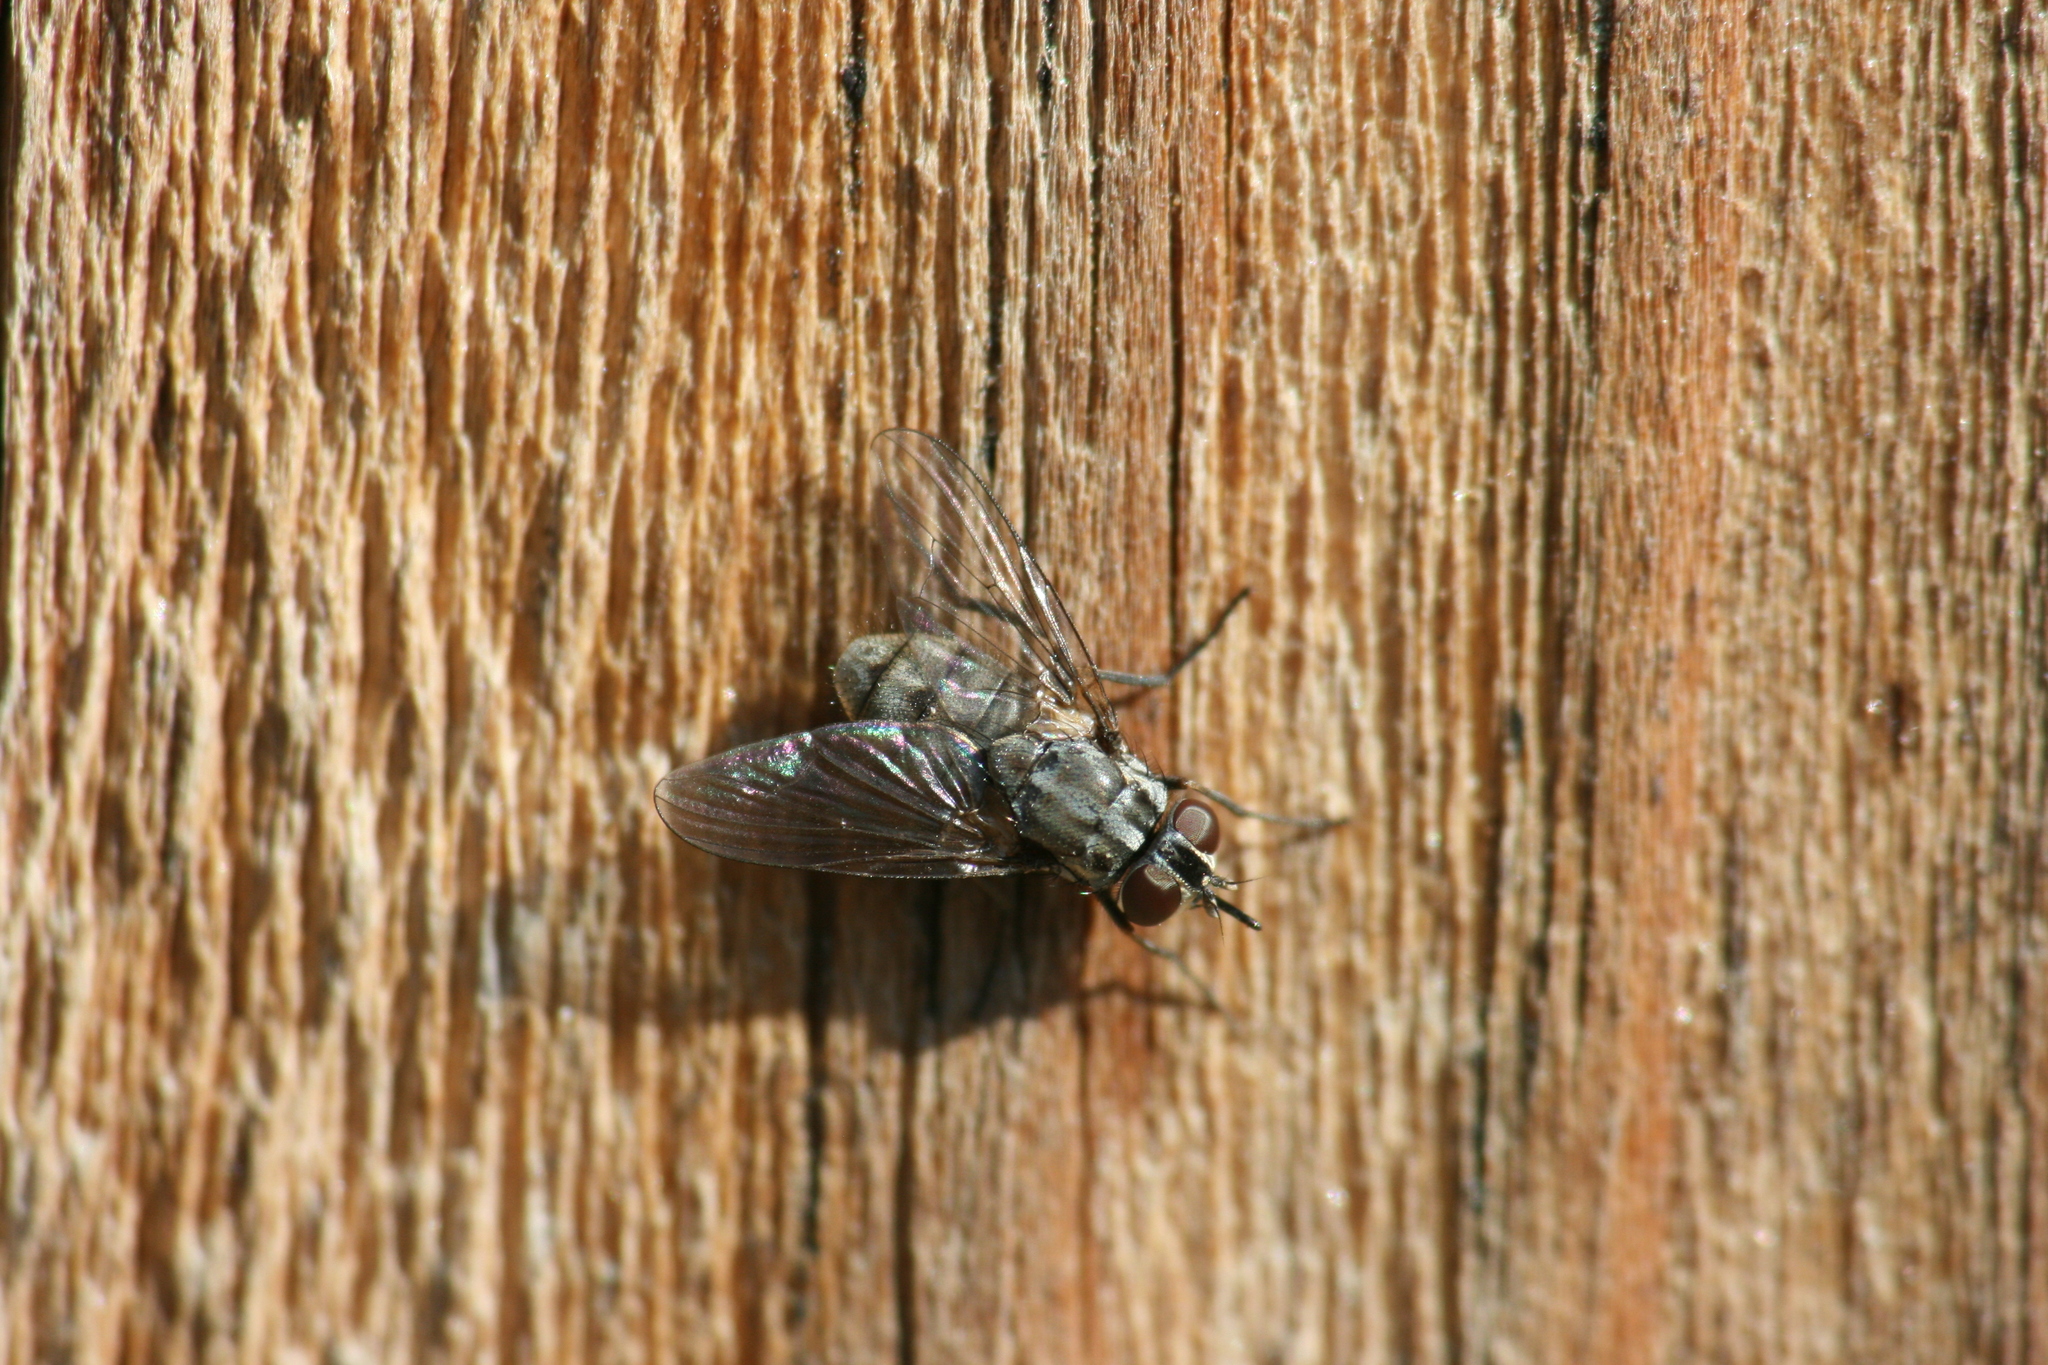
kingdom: Animalia
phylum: Arthropoda
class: Insecta
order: Diptera
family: Muscidae
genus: Stomoxys
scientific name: Stomoxys calcitrans
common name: Stable fly
